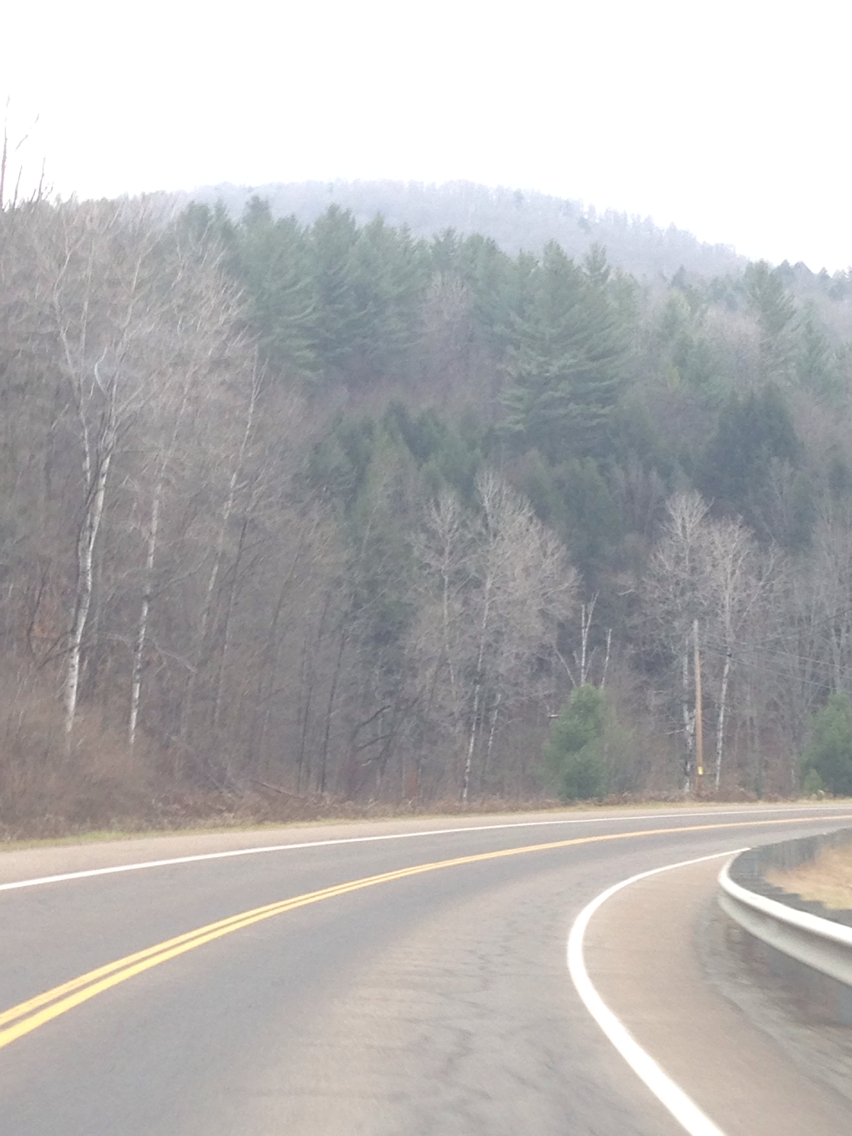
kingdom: Plantae
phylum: Tracheophyta
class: Pinopsida
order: Pinales
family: Pinaceae
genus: Tsuga
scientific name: Tsuga canadensis
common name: Eastern hemlock
